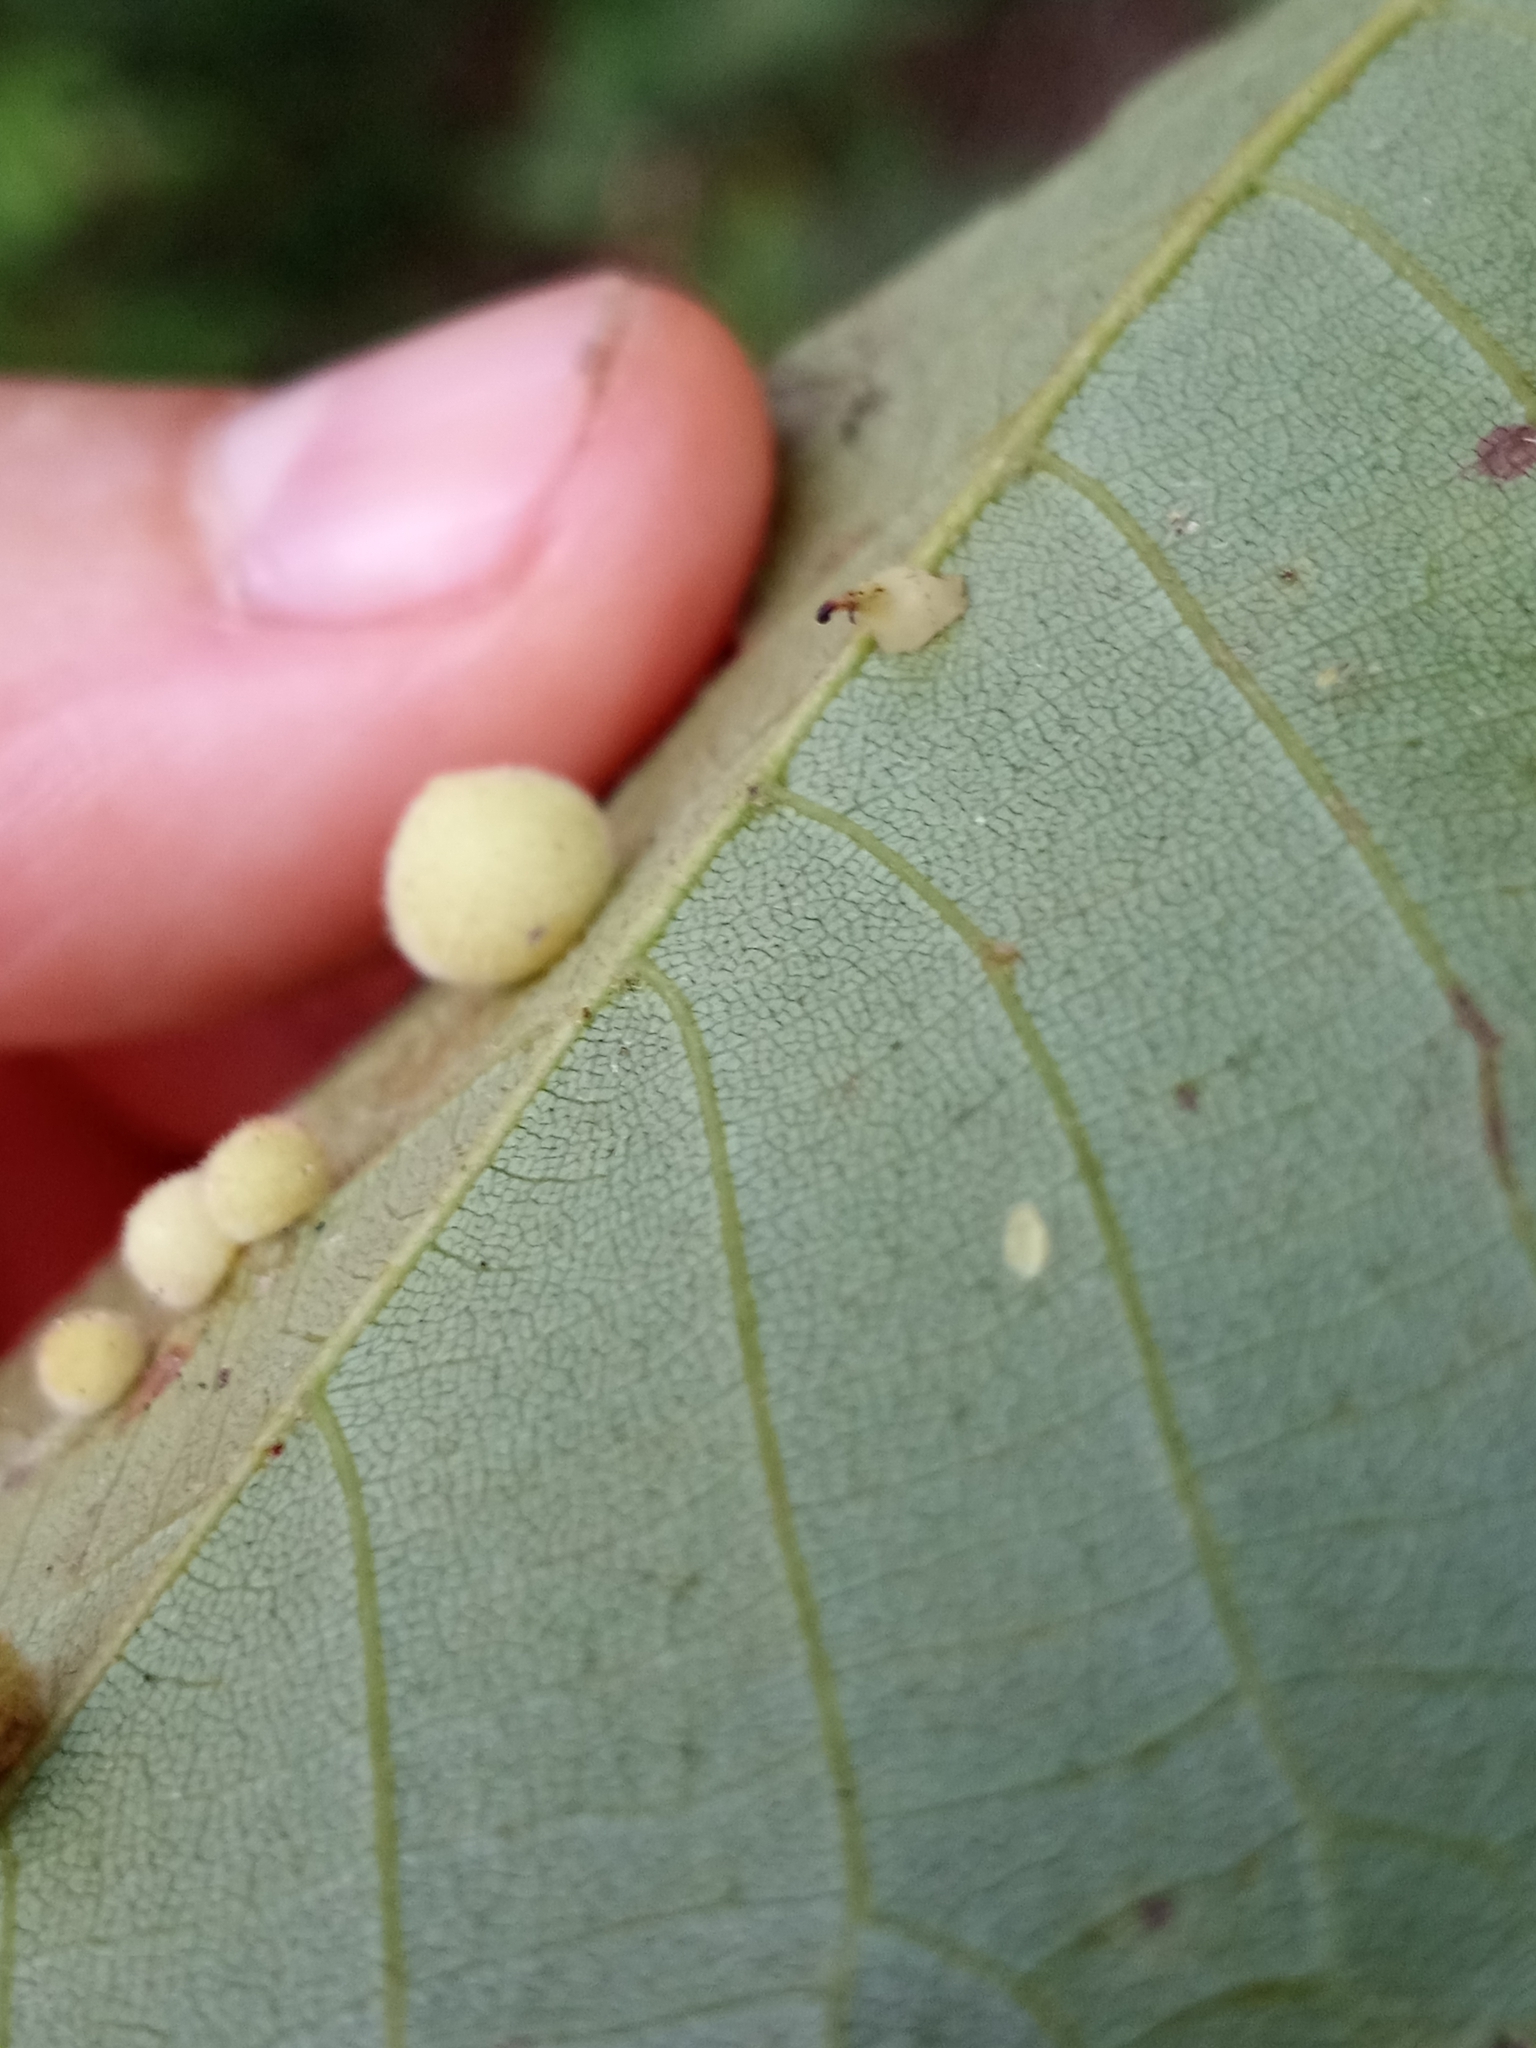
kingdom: Animalia
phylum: Arthropoda
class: Insecta
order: Diptera
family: Cecidomyiidae
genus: Caryomyia
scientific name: Caryomyia persicoides
